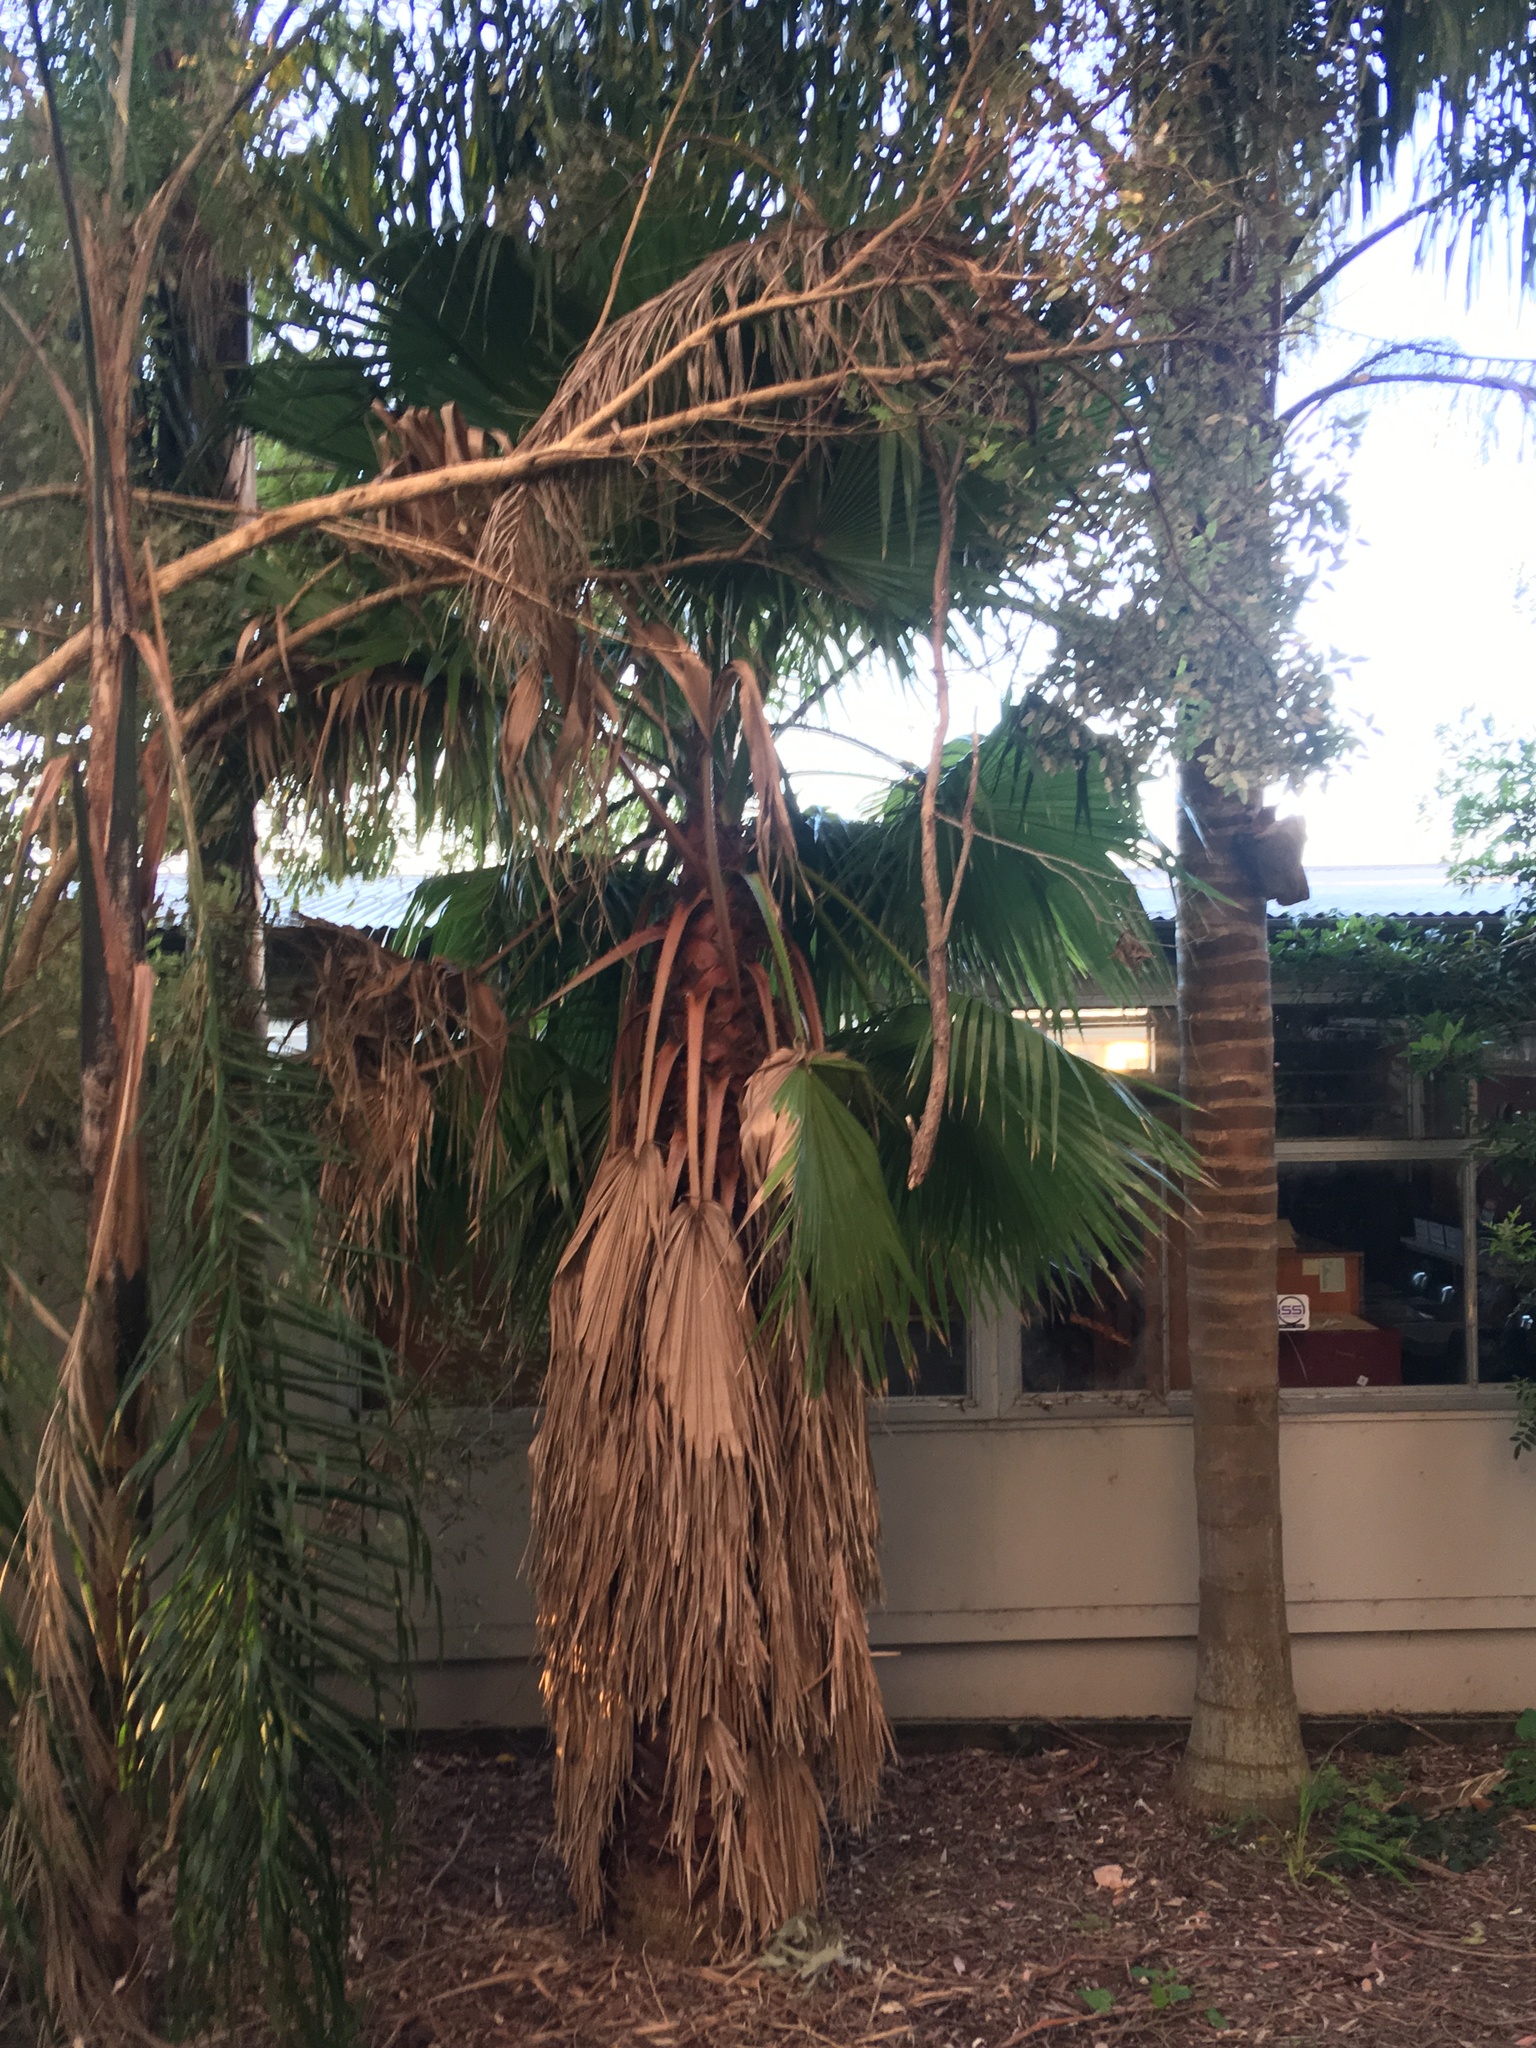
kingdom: Plantae
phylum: Tracheophyta
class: Liliopsida
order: Arecales
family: Arecaceae
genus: Washingtonia
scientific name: Washingtonia robusta
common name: Mexican fan palm
